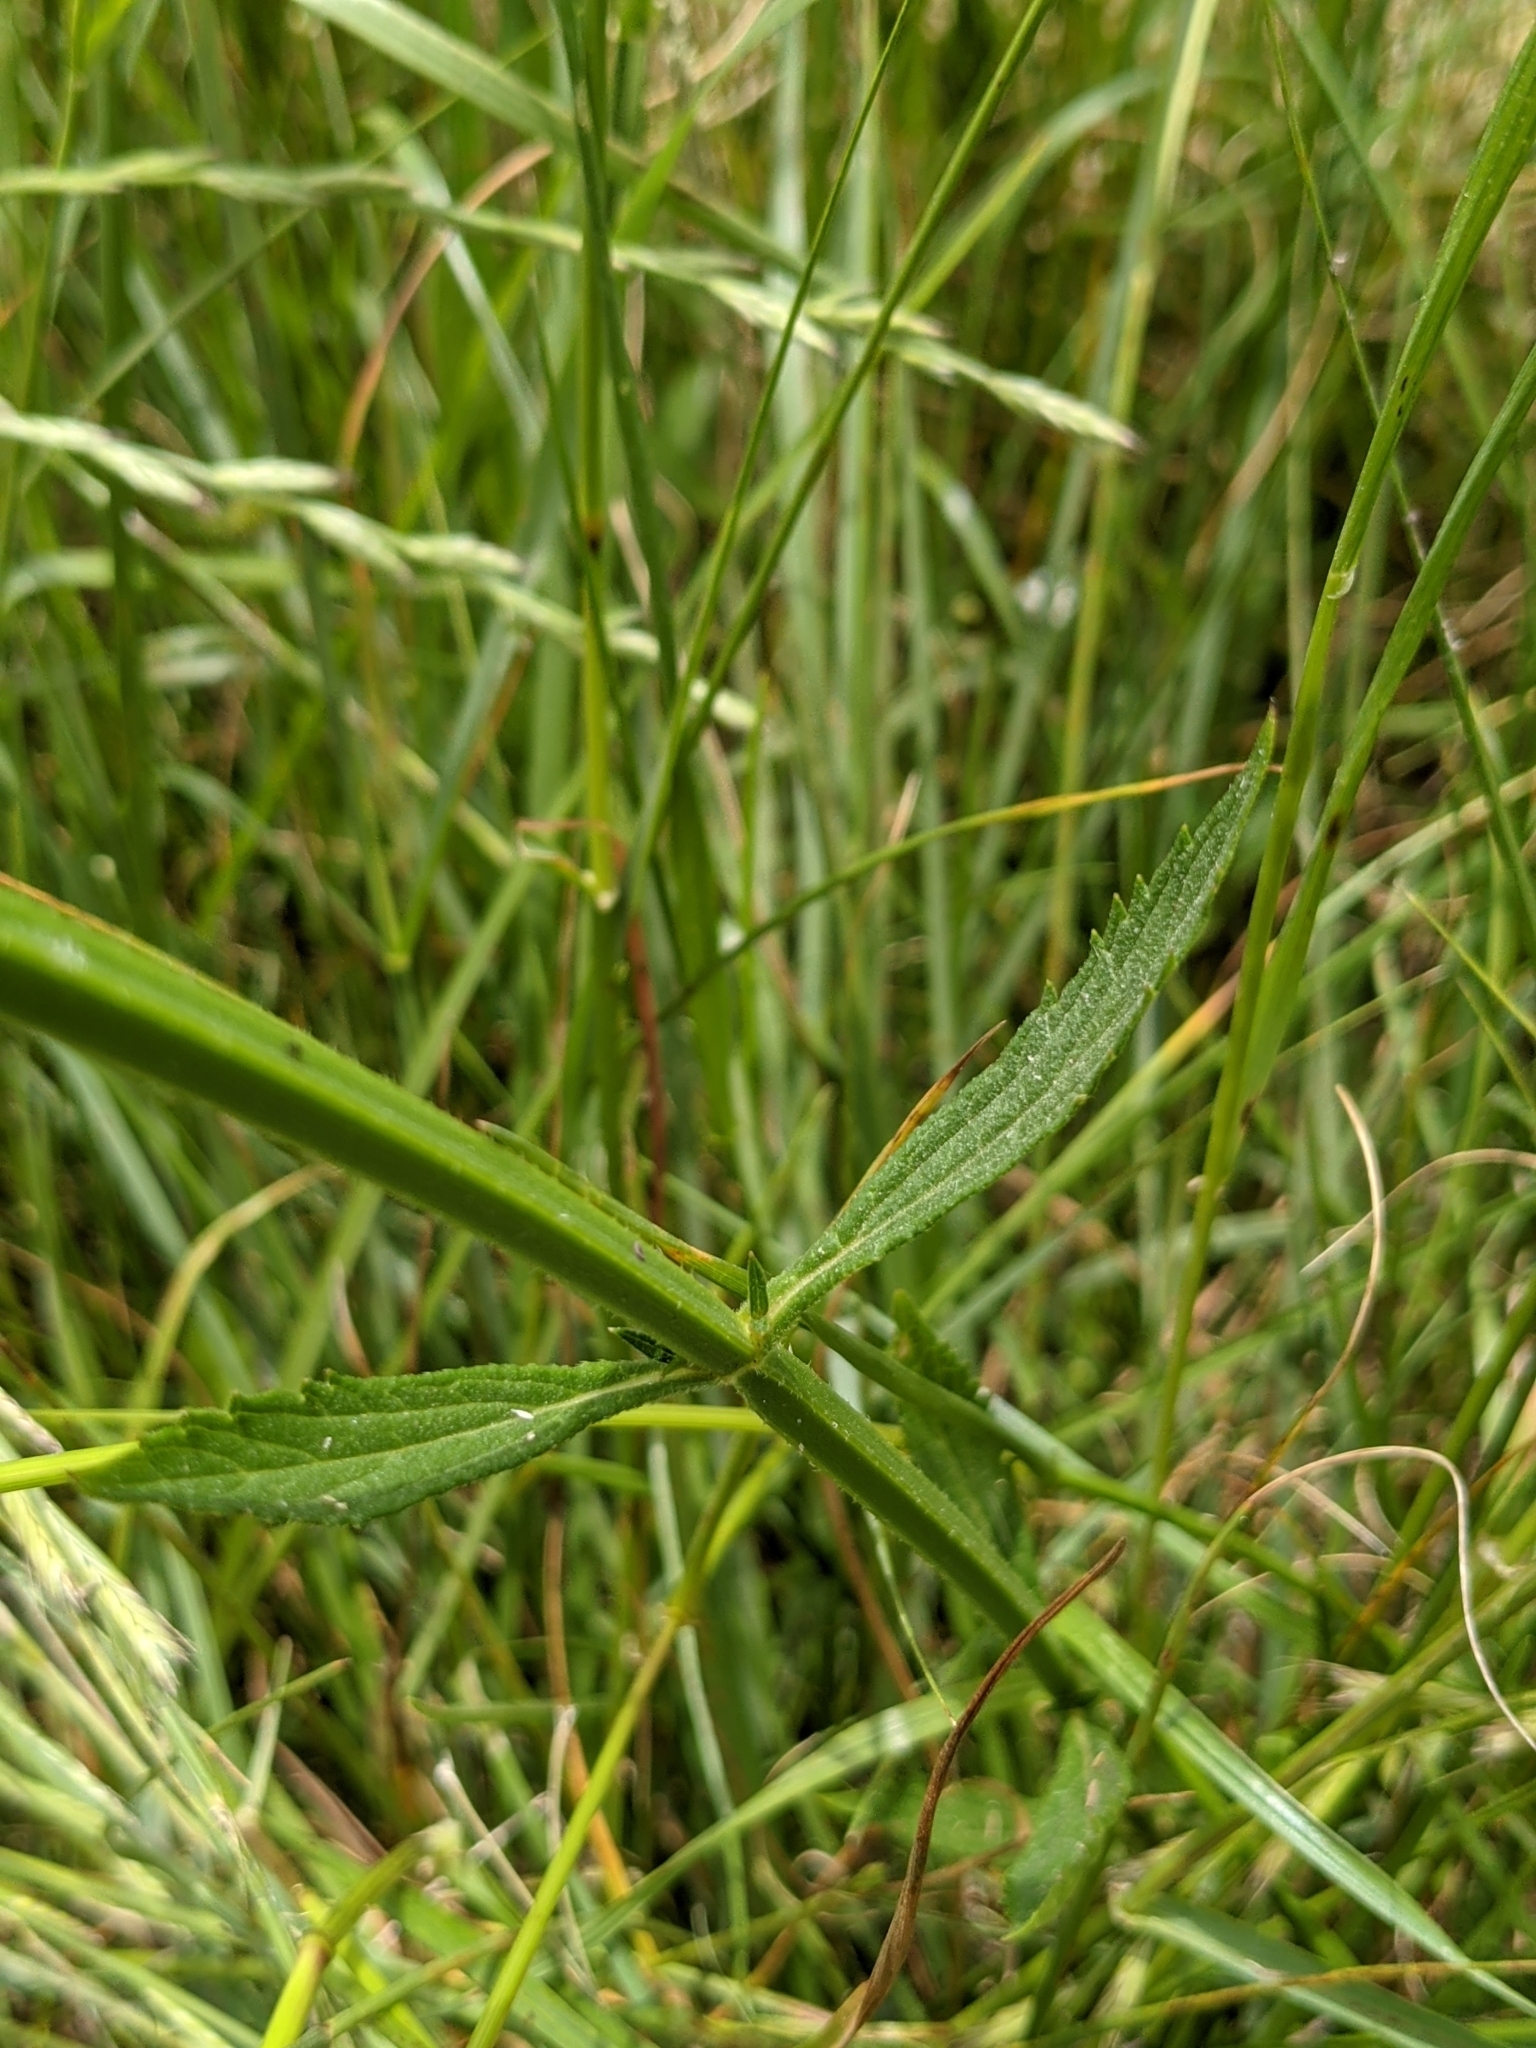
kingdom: Plantae
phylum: Tracheophyta
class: Magnoliopsida
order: Lamiales
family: Verbenaceae
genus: Verbena
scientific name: Verbena bonariensis
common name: Purpletop vervain
